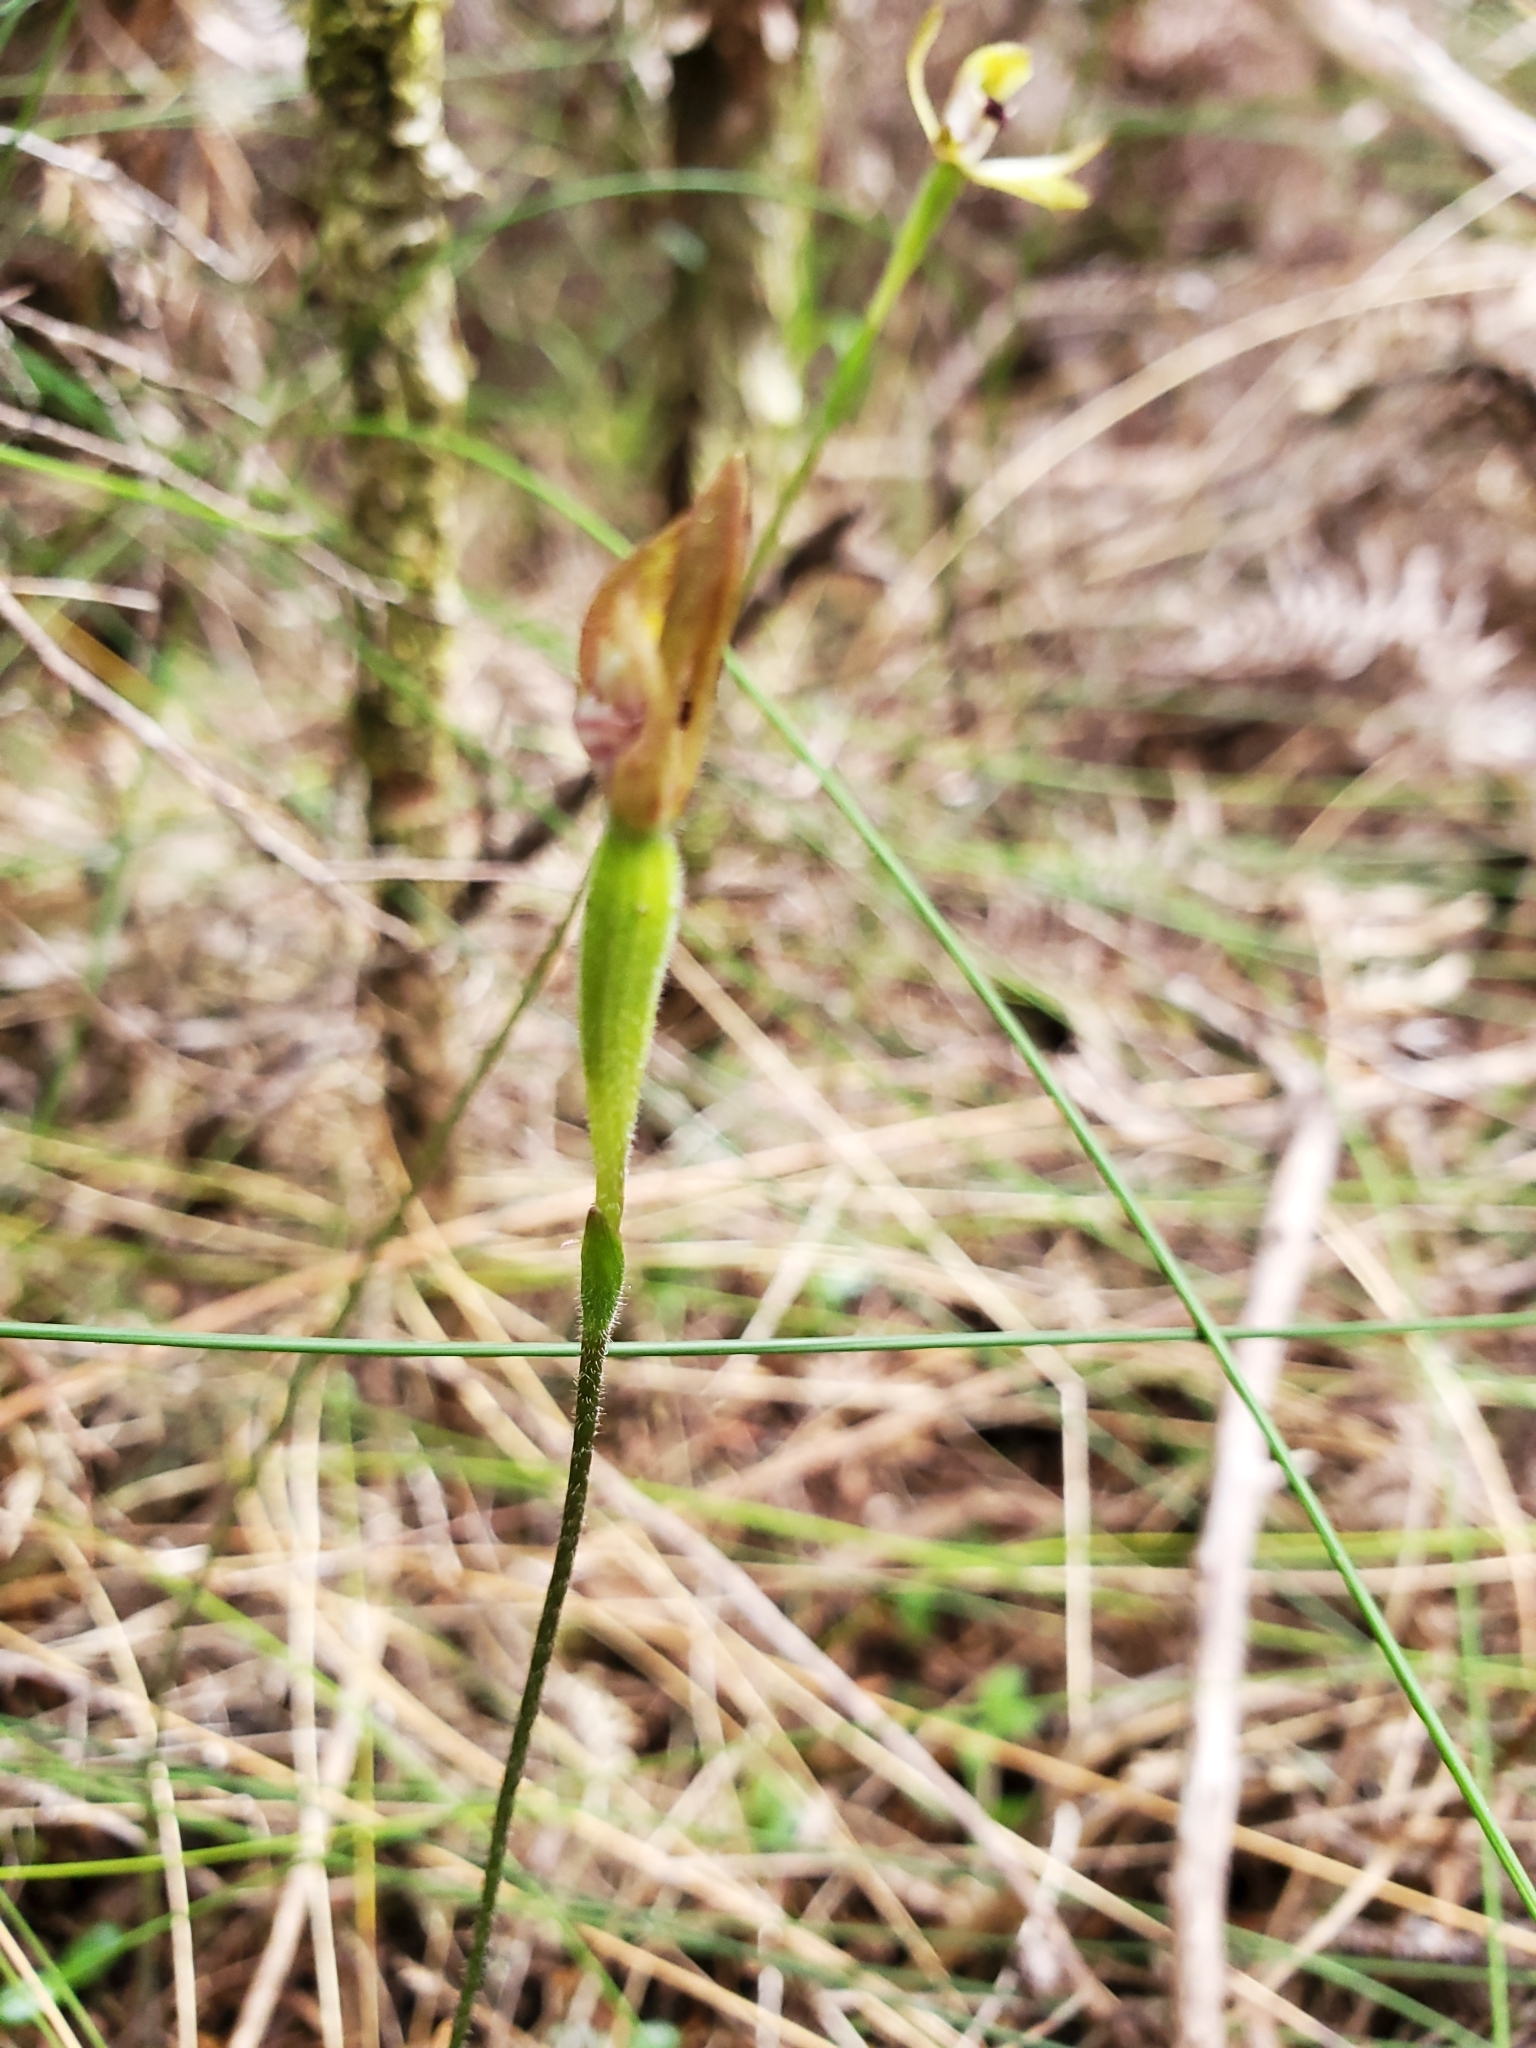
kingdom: Plantae
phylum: Tracheophyta
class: Liliopsida
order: Asparagales
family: Orchidaceae
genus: Caladenia
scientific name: Caladenia atradenia
